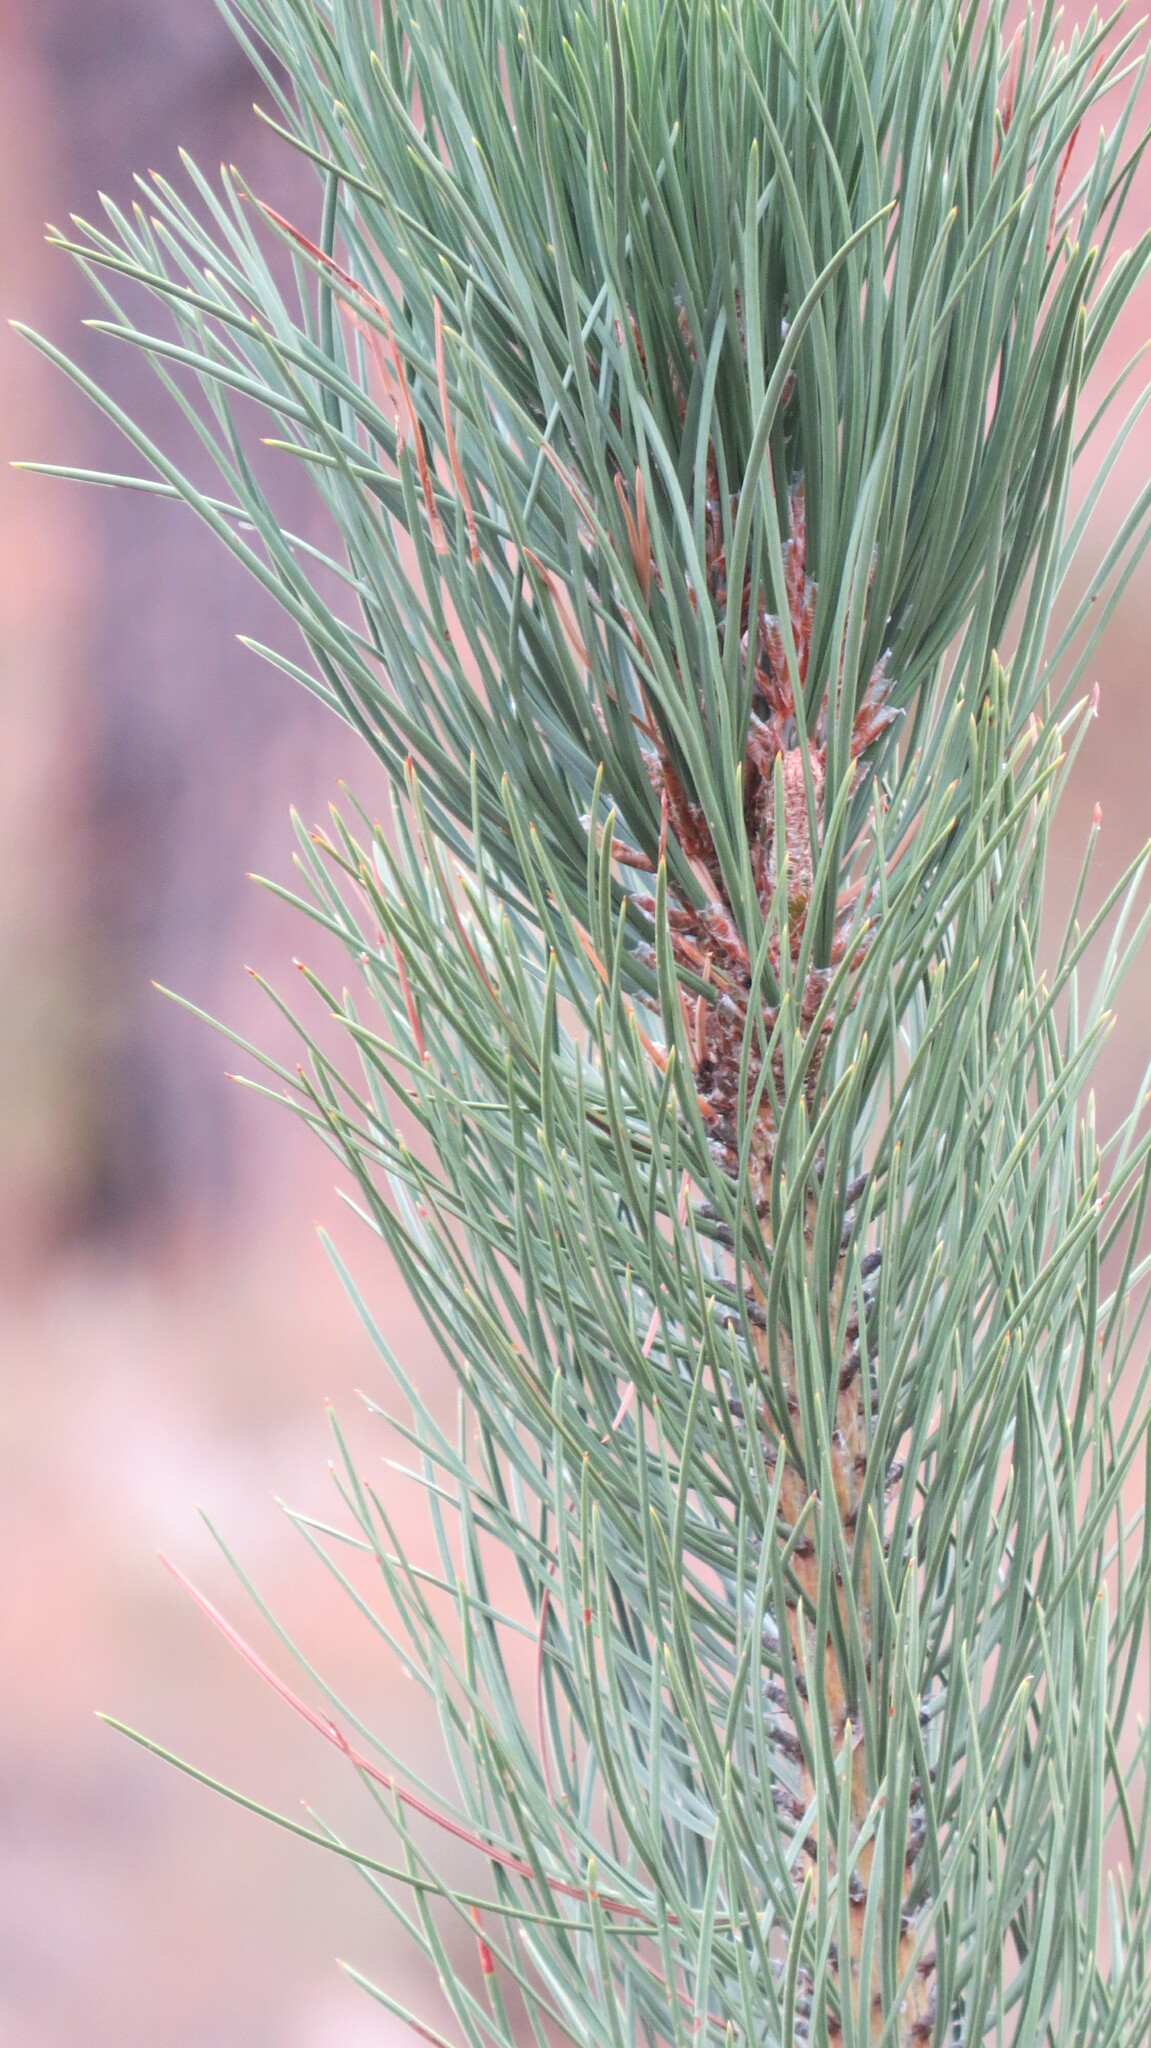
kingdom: Plantae
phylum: Tracheophyta
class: Pinopsida
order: Pinales
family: Pinaceae
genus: Pinus
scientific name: Pinus ponderosa
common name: Western yellow-pine
